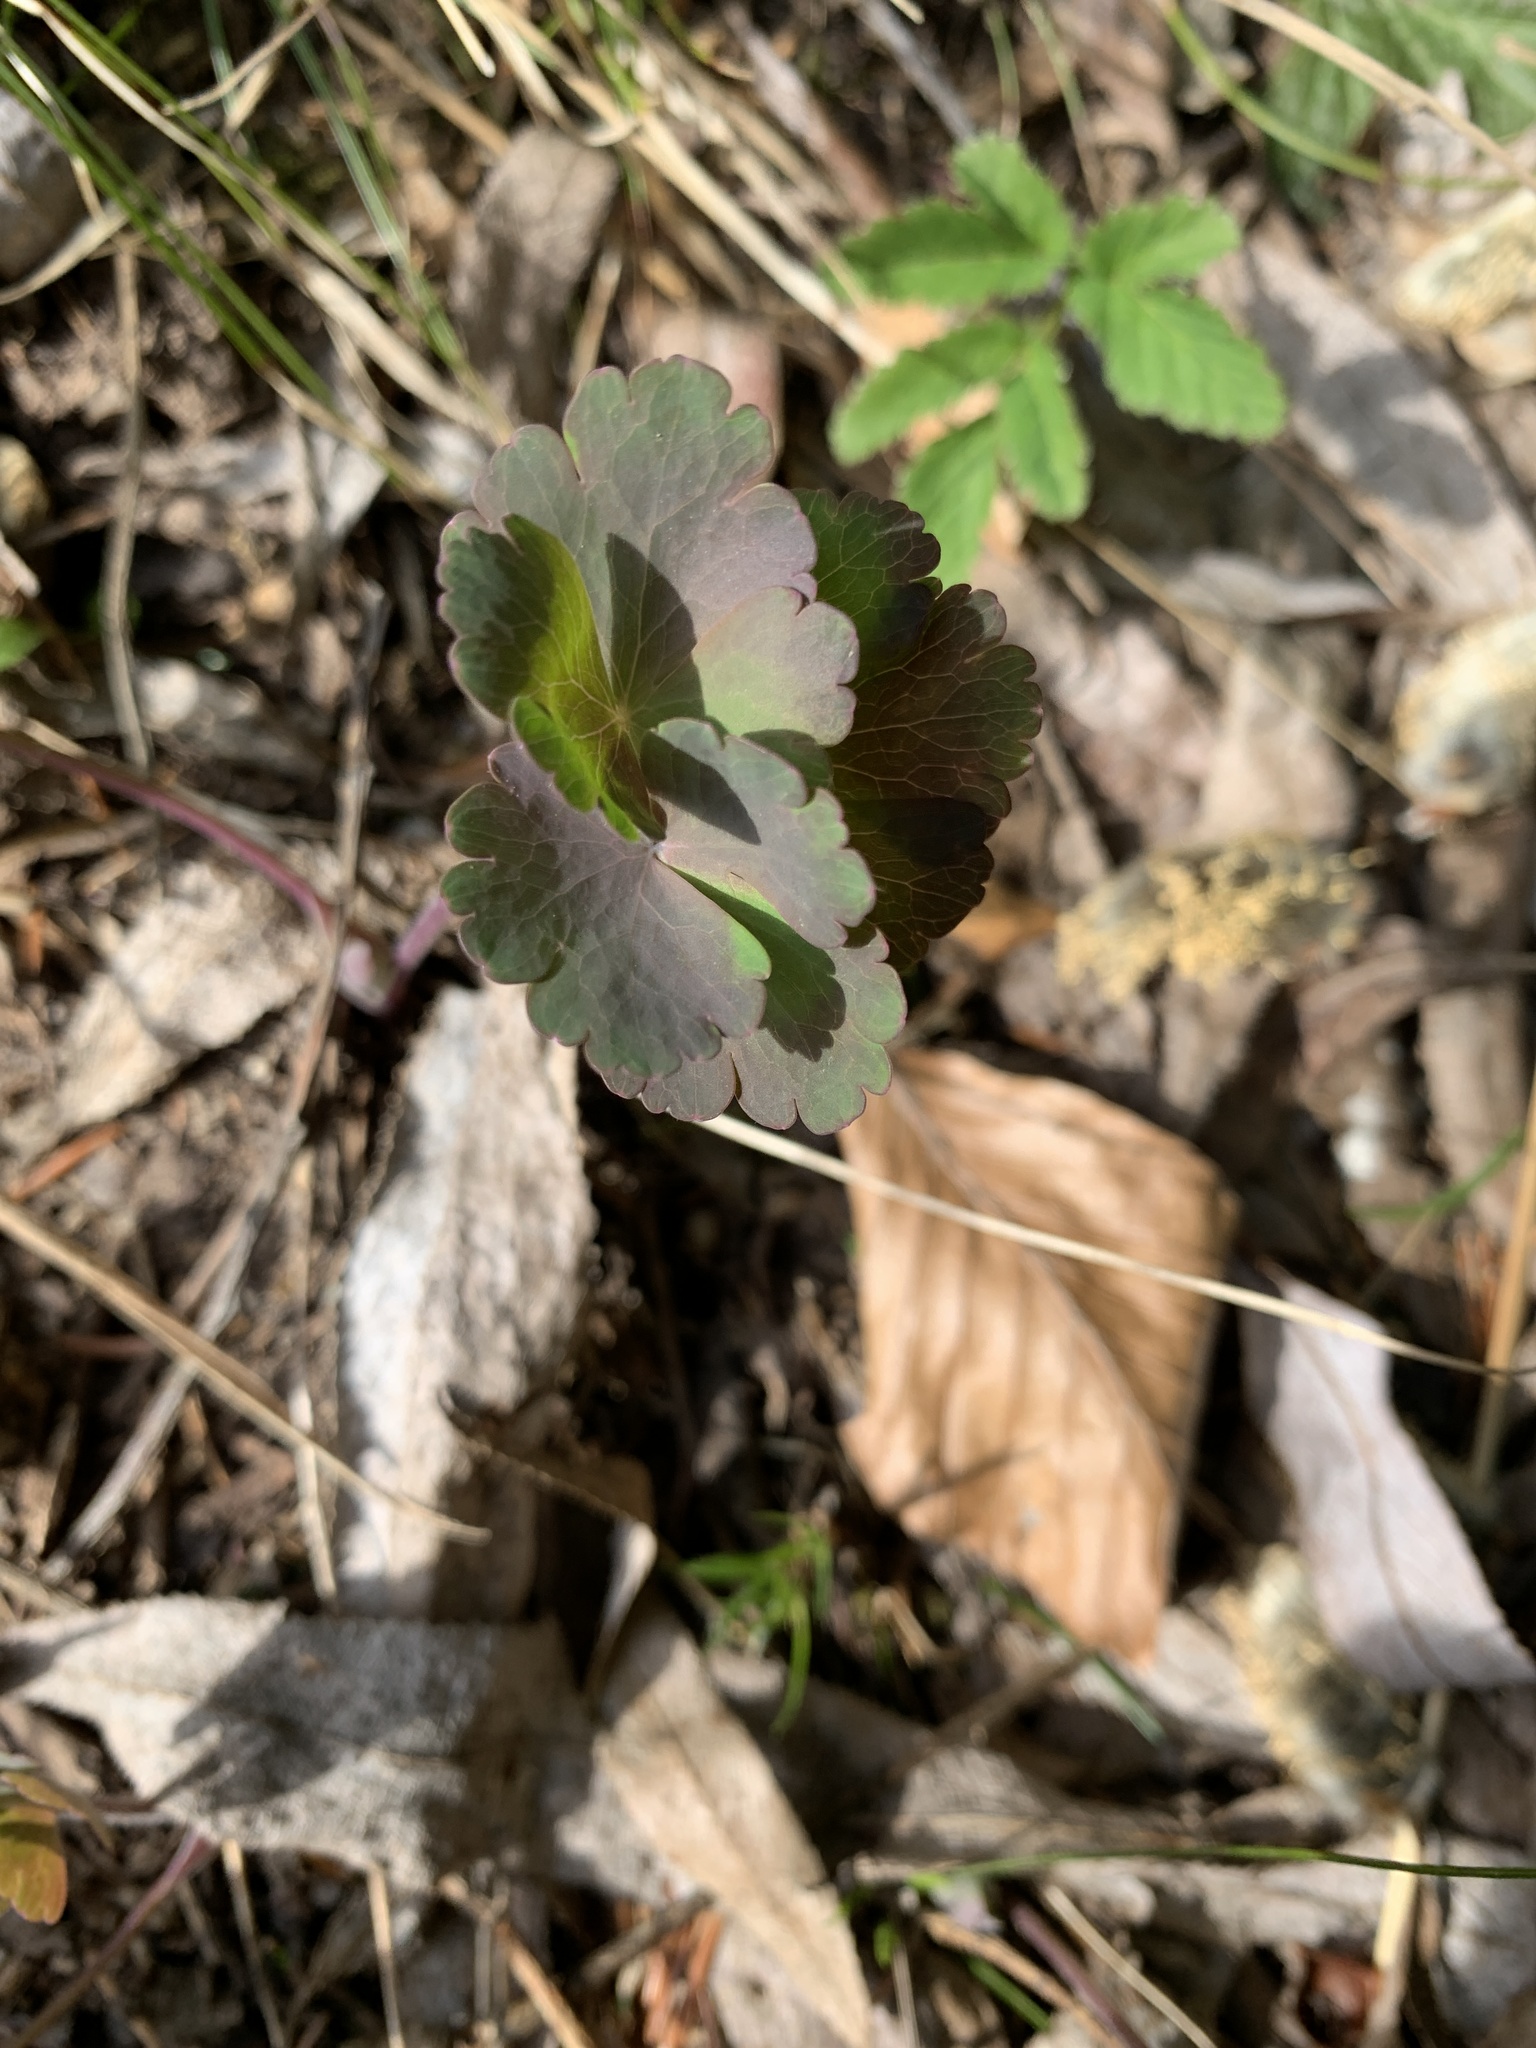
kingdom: Plantae
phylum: Tracheophyta
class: Magnoliopsida
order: Ranunculales
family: Ranunculaceae
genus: Aquilegia
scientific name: Aquilegia vulgaris
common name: Columbine
